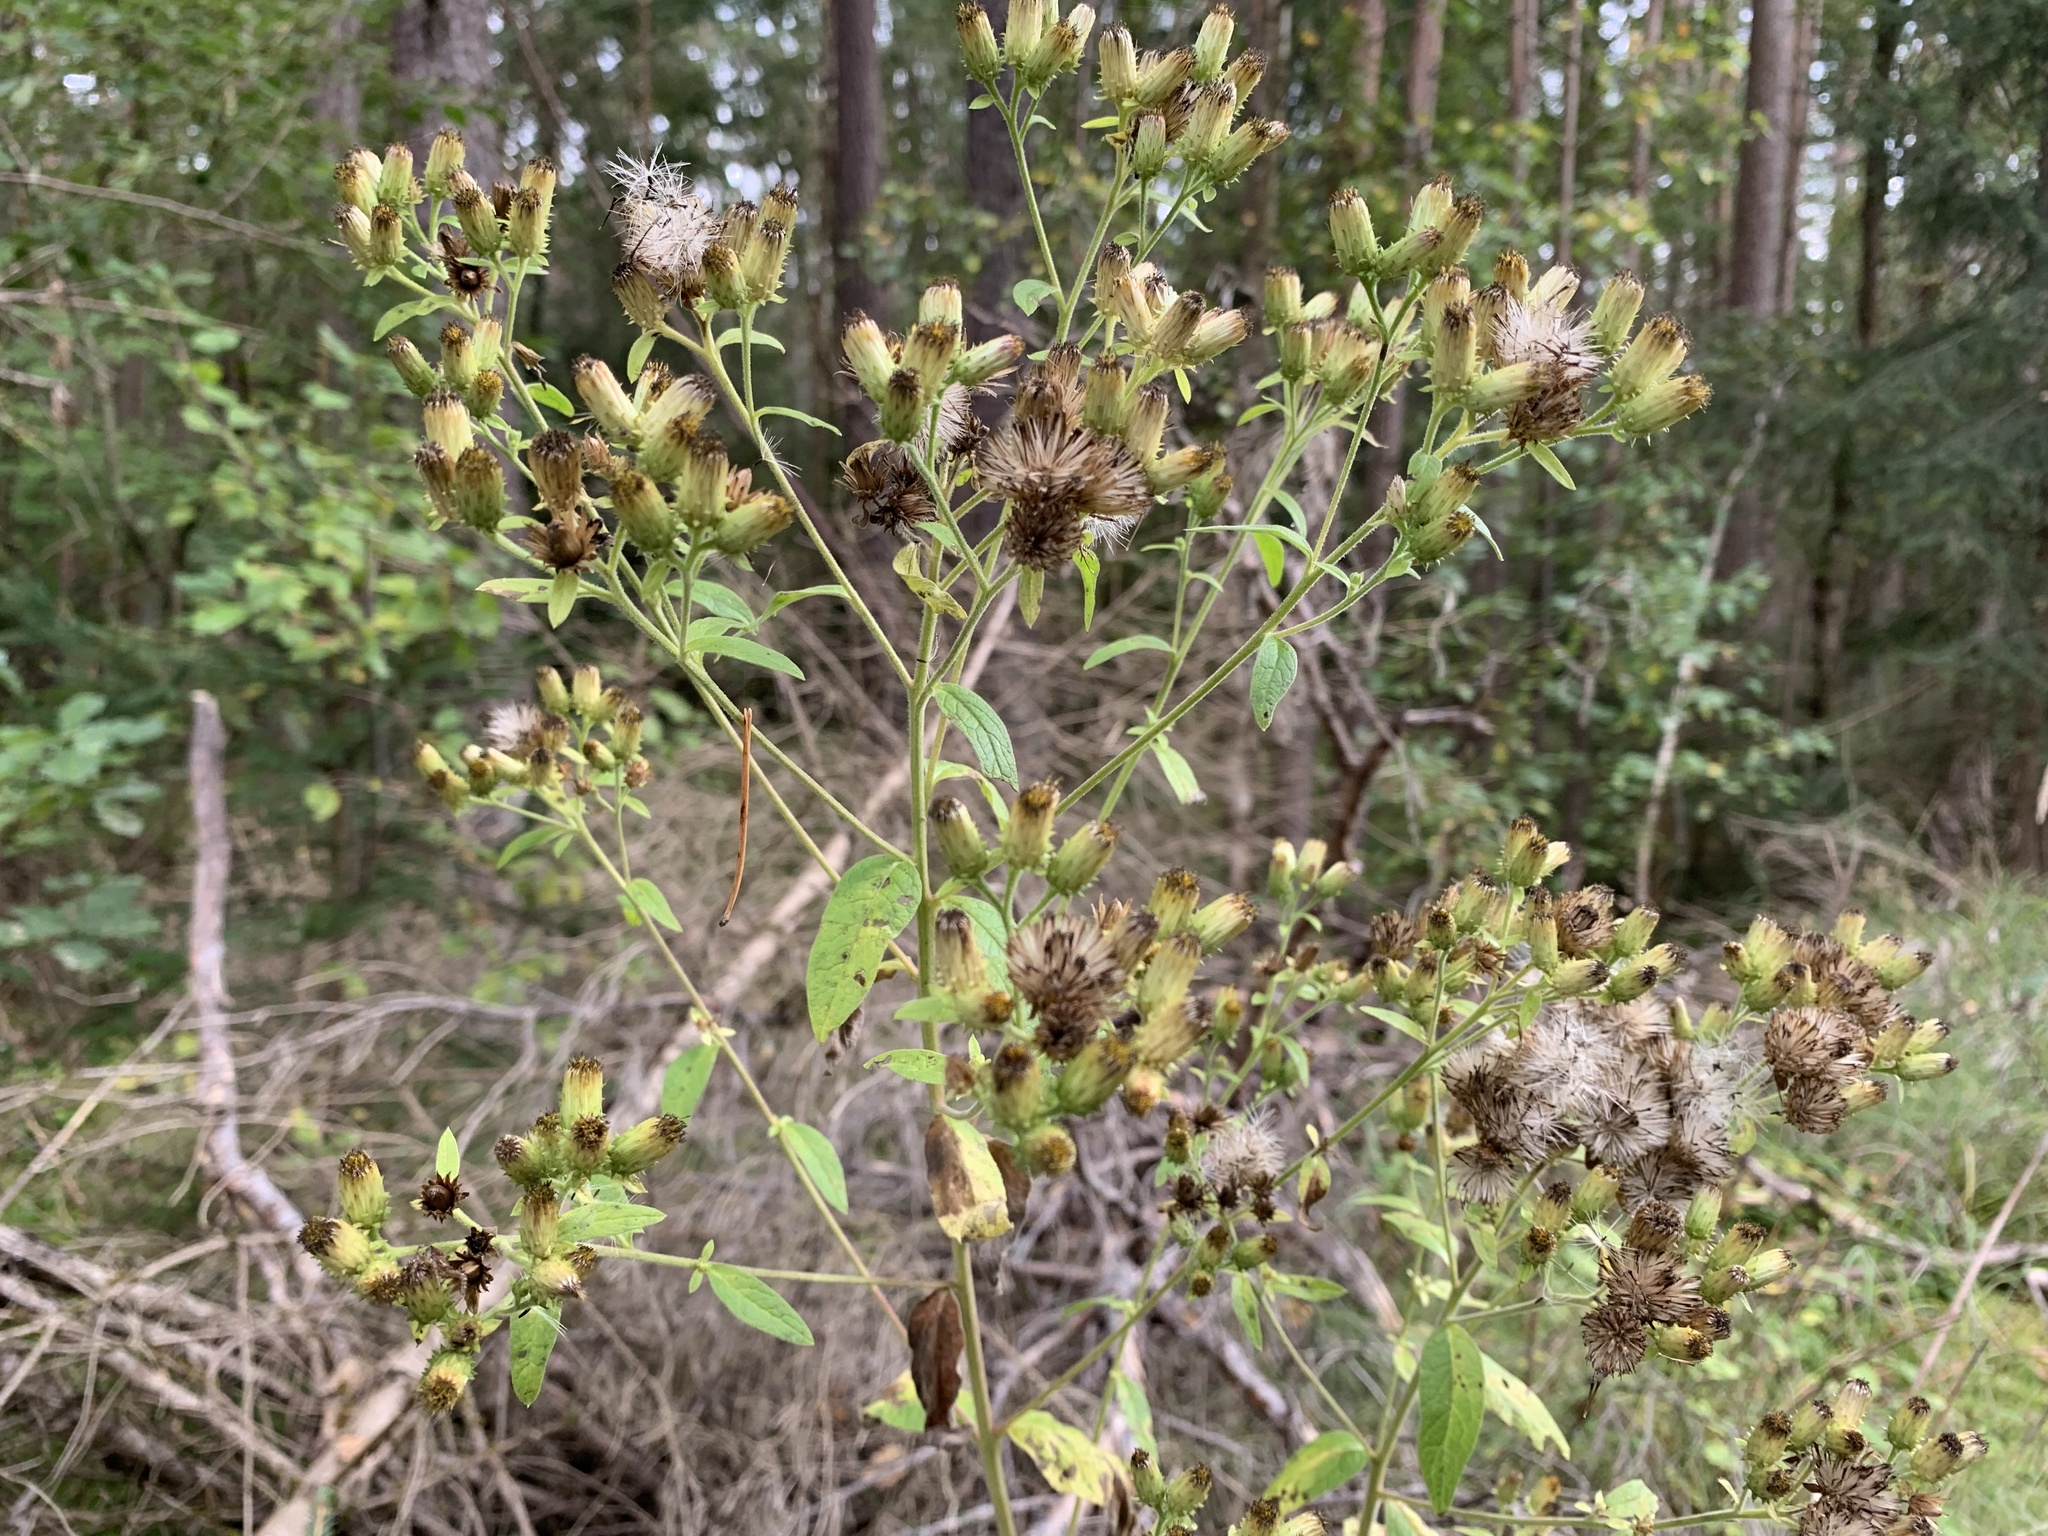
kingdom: Plantae
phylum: Tracheophyta
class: Magnoliopsida
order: Asterales
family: Asteraceae
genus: Pentanema
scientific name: Pentanema squarrosum
